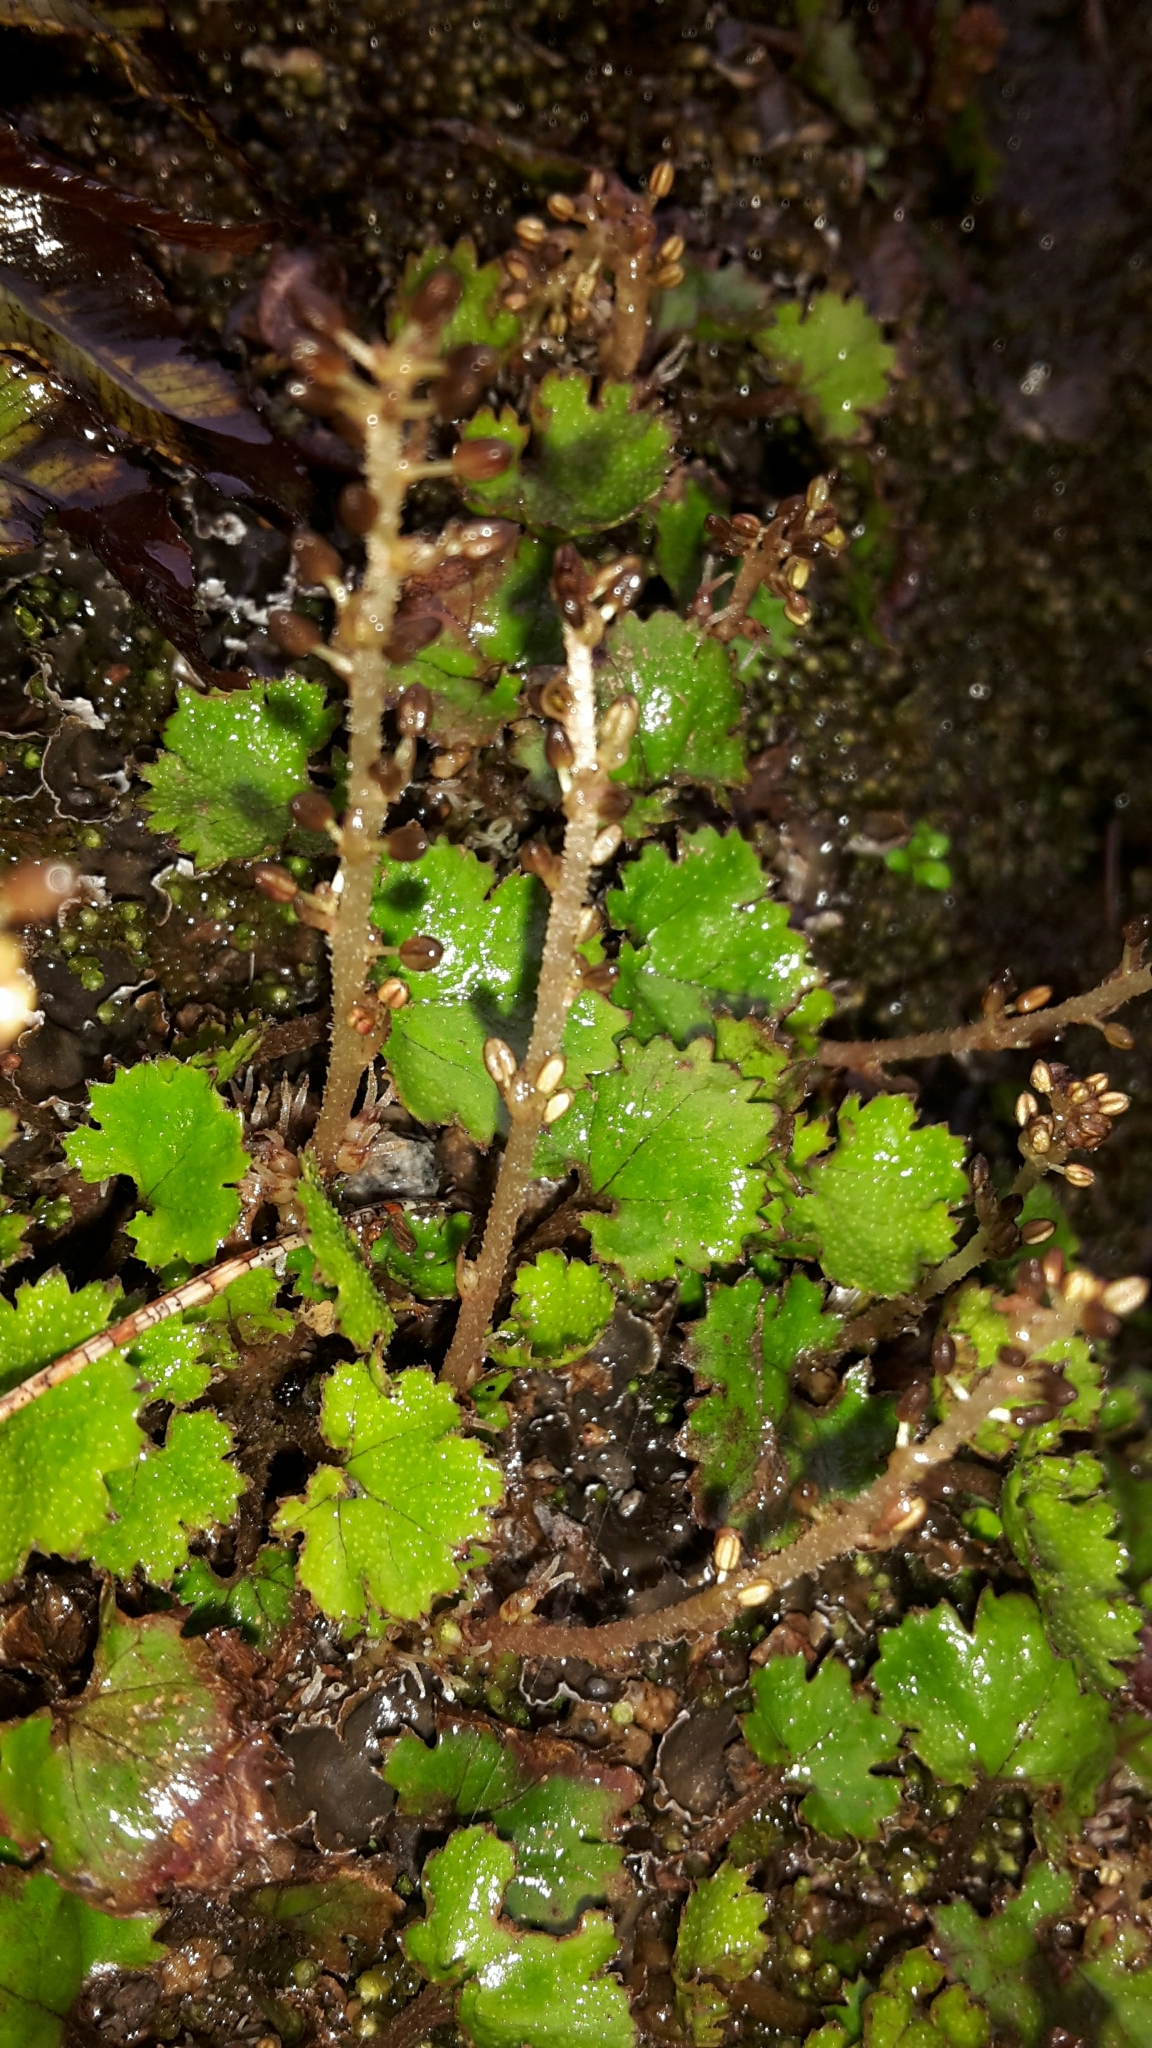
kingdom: Plantae
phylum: Tracheophyta
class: Magnoliopsida
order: Gunnerales
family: Gunneraceae
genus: Gunnera
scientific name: Gunnera monoica
